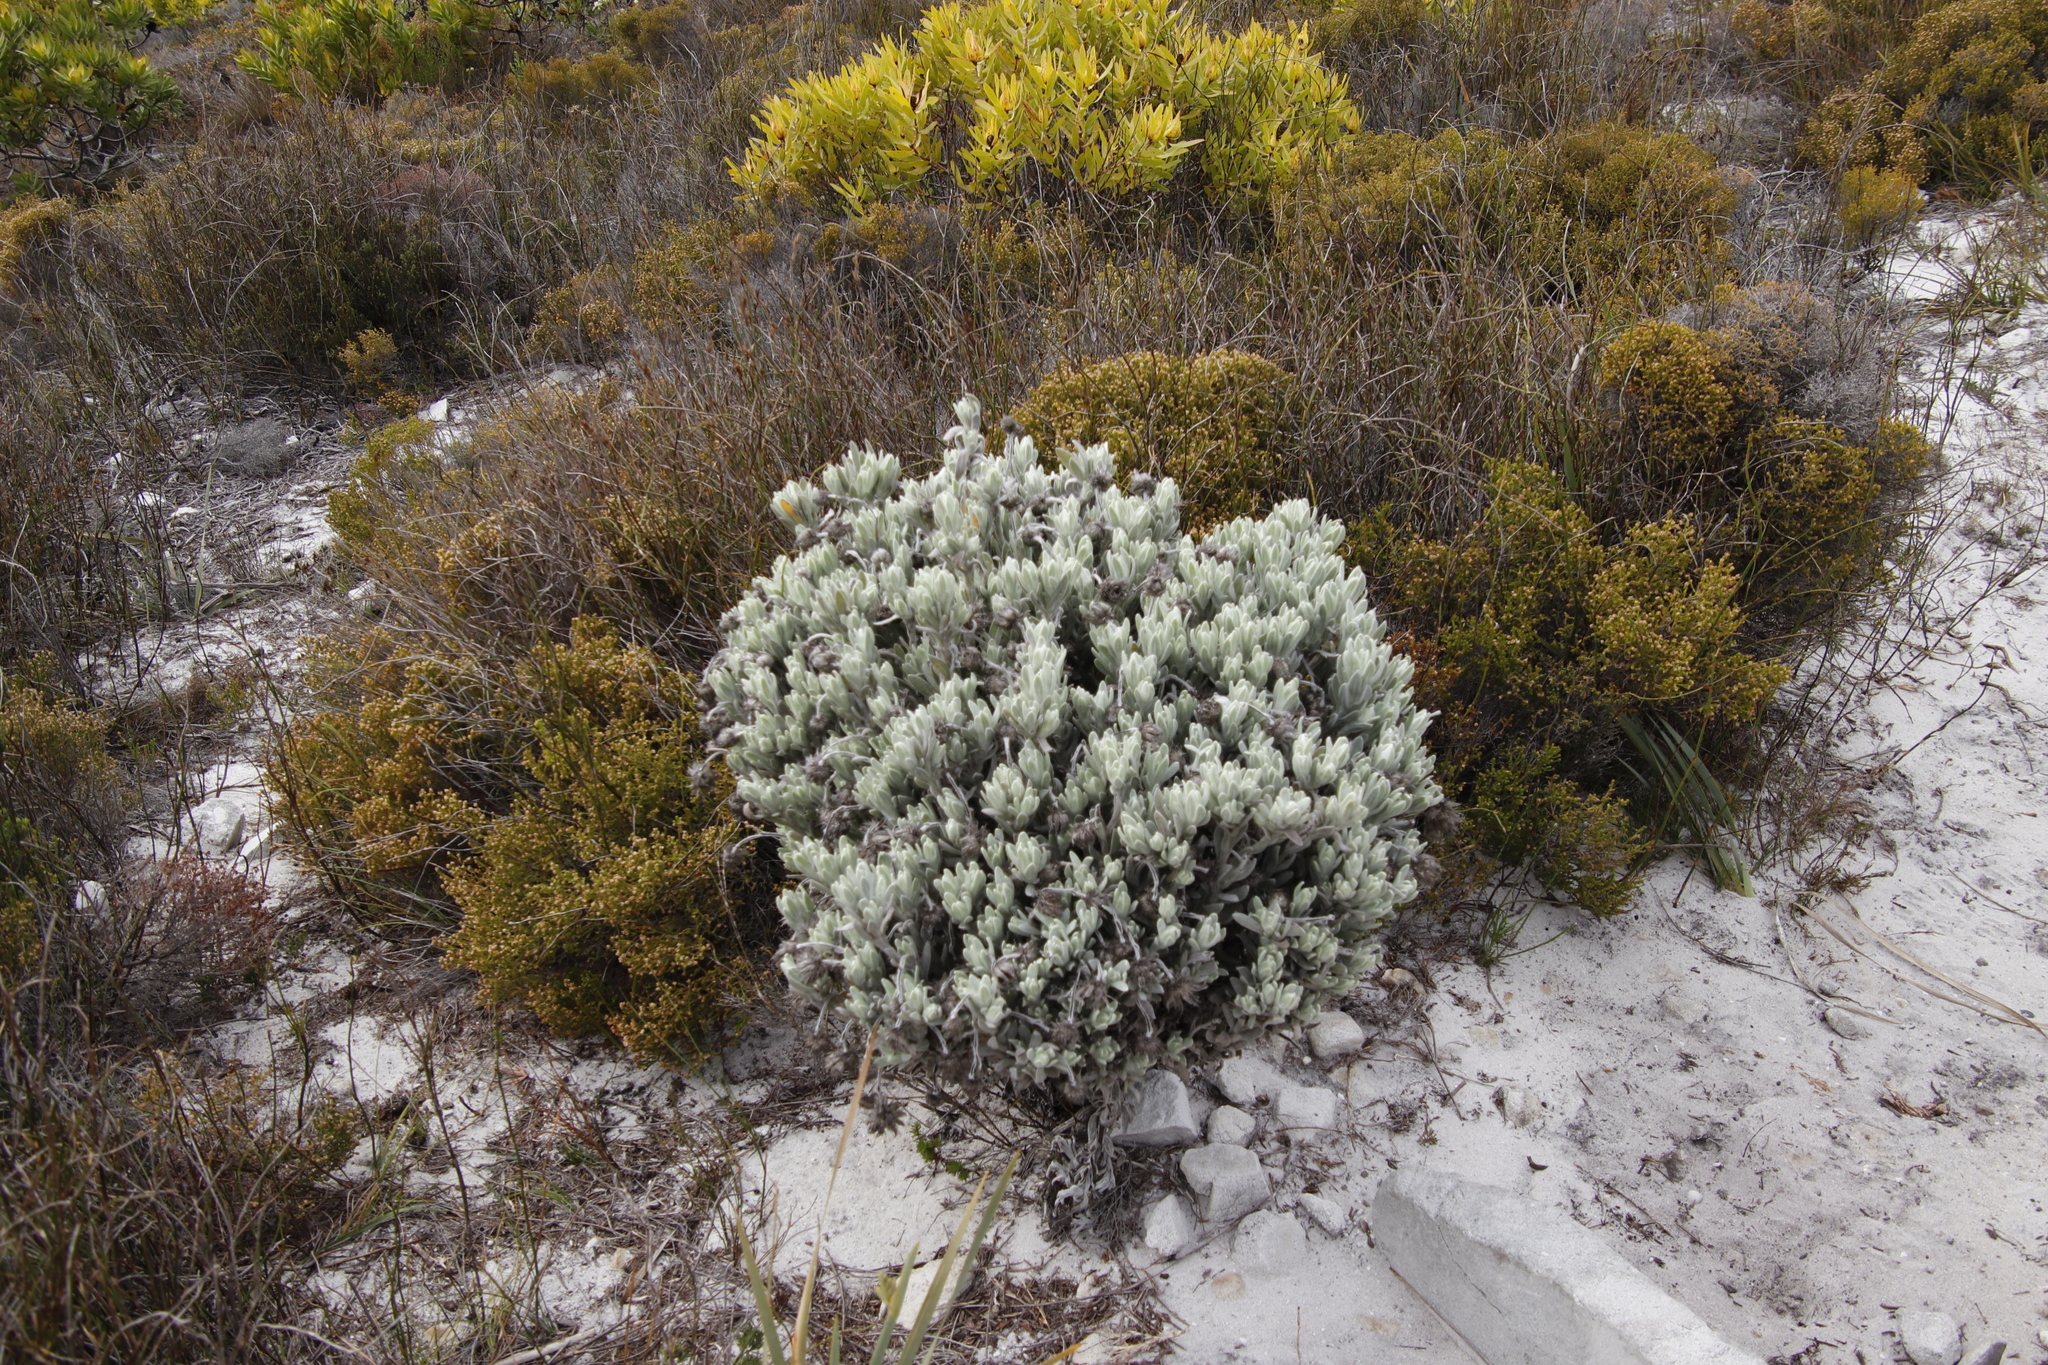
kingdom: Plantae
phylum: Tracheophyta
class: Magnoliopsida
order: Asterales
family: Asteraceae
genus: Syncarpha
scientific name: Syncarpha vestita
